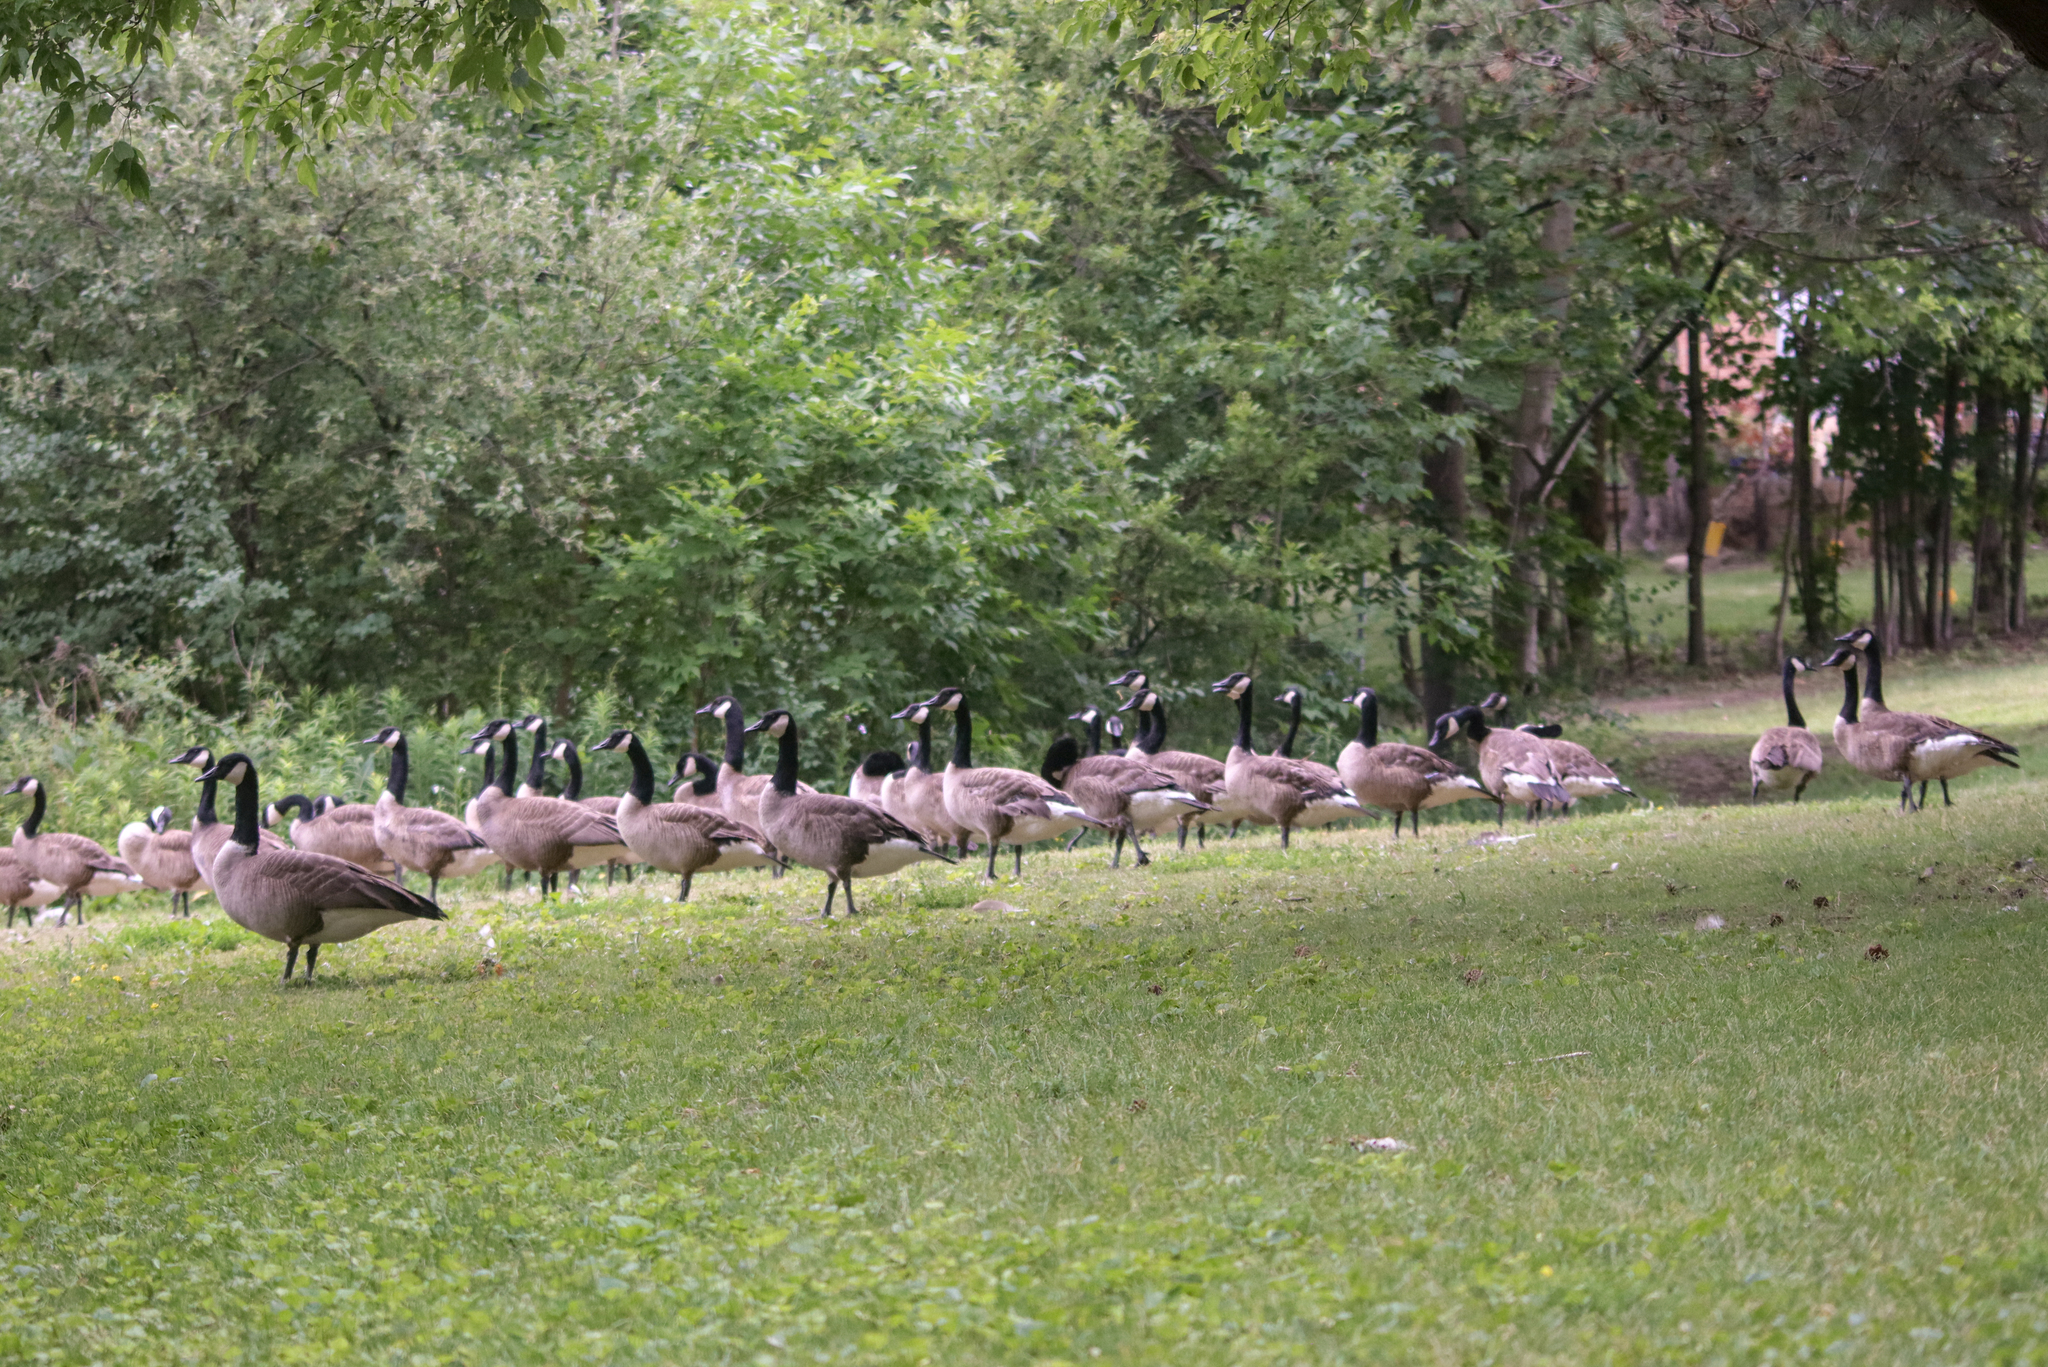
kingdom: Animalia
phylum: Chordata
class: Aves
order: Anseriformes
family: Anatidae
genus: Branta
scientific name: Branta canadensis
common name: Canada goose
